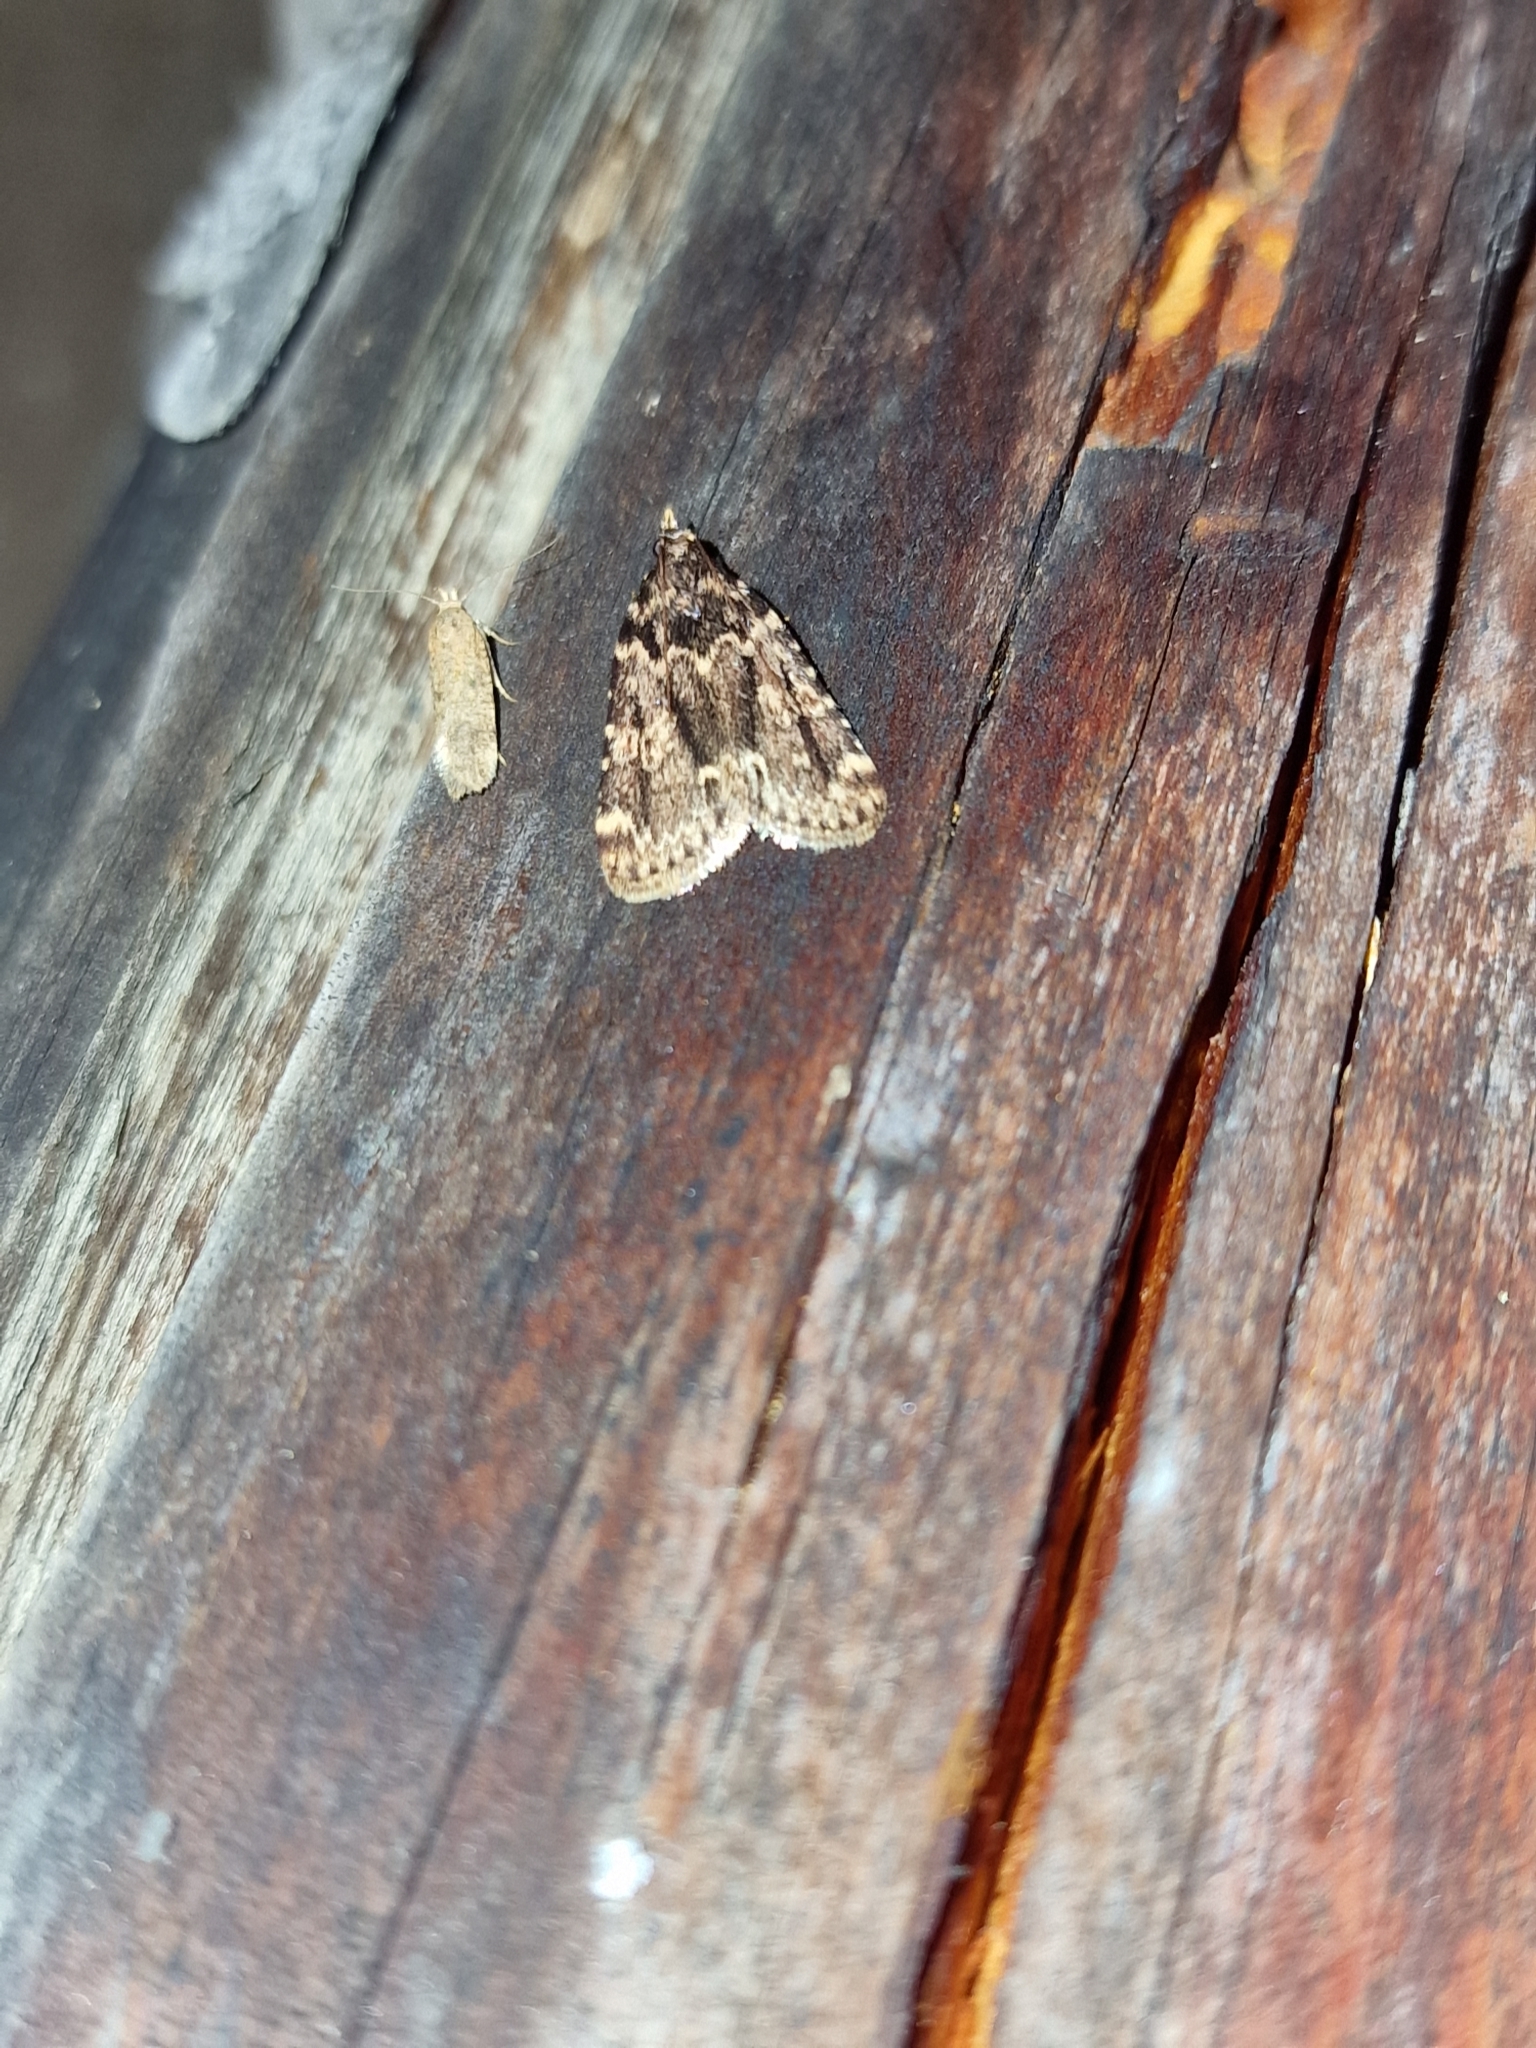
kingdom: Animalia
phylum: Arthropoda
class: Insecta
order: Lepidoptera
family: Pyralidae
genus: Aglossa
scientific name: Aglossa caprealis
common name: Small tabby
